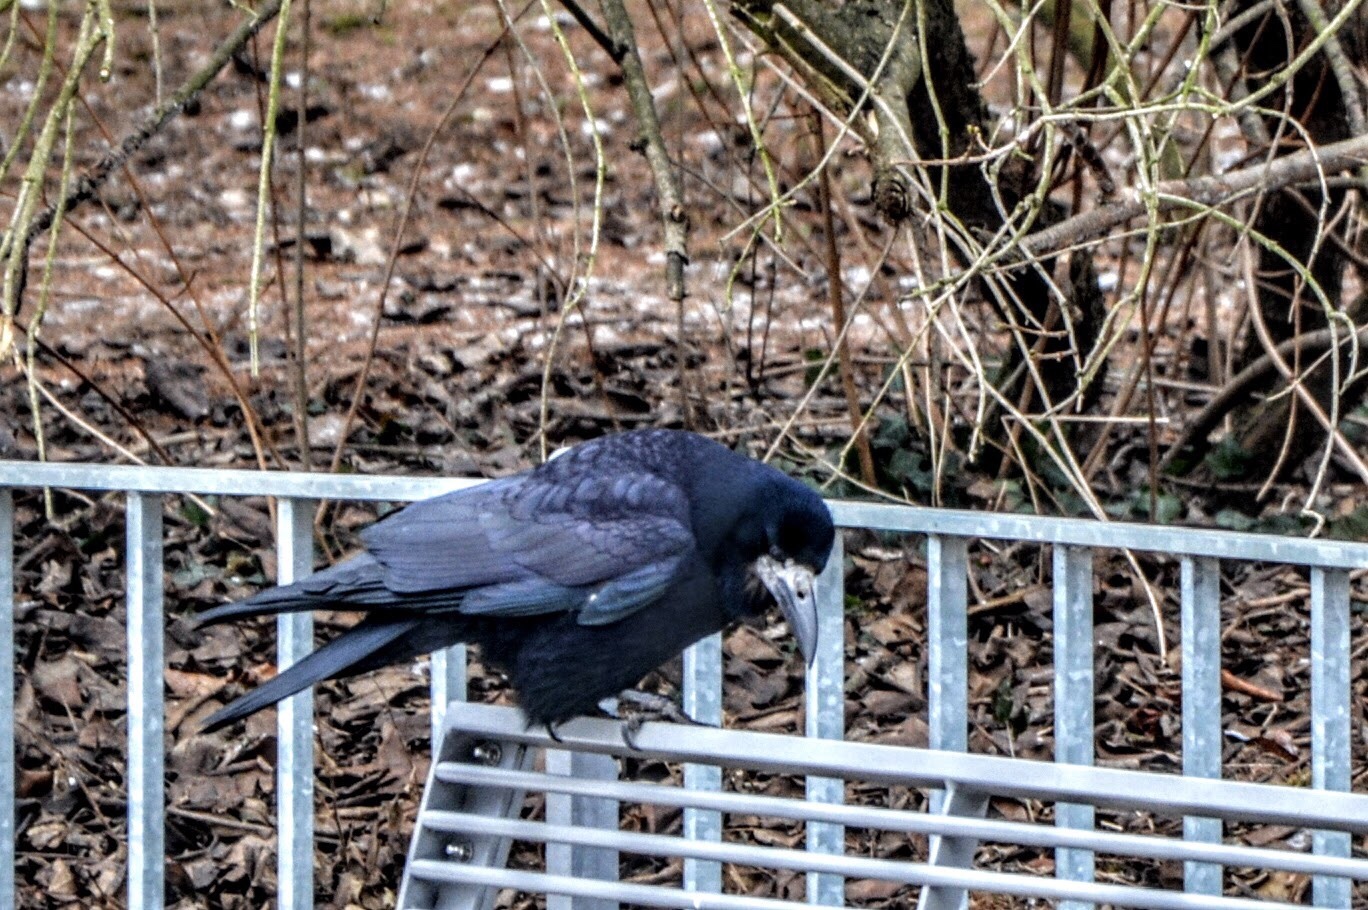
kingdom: Animalia
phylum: Chordata
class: Aves
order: Passeriformes
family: Corvidae
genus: Corvus
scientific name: Corvus frugilegus
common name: Rook
